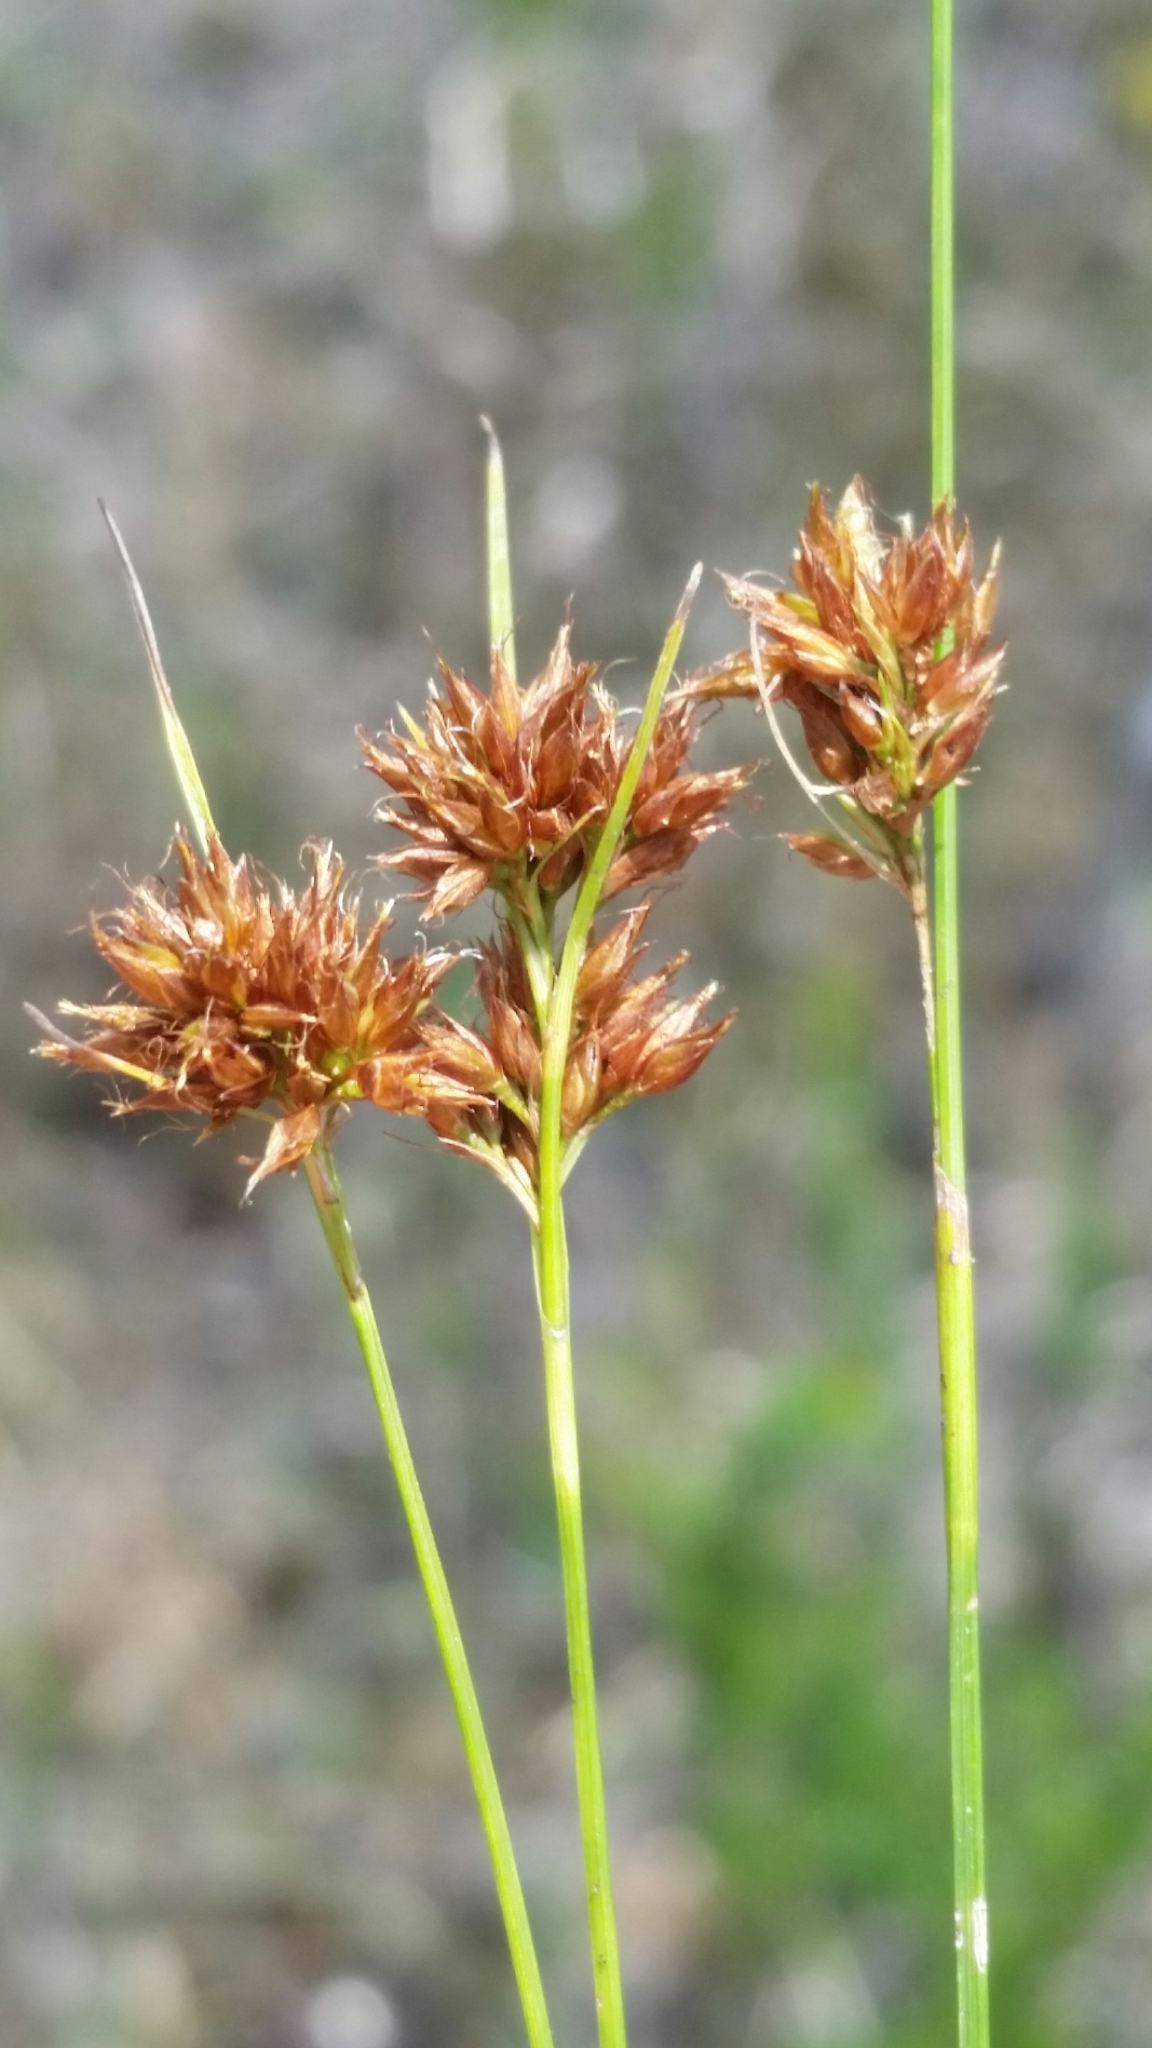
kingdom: Plantae
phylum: Tracheophyta
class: Liliopsida
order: Poales
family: Cyperaceae
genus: Rhynchospora
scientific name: Rhynchospora filifolia
